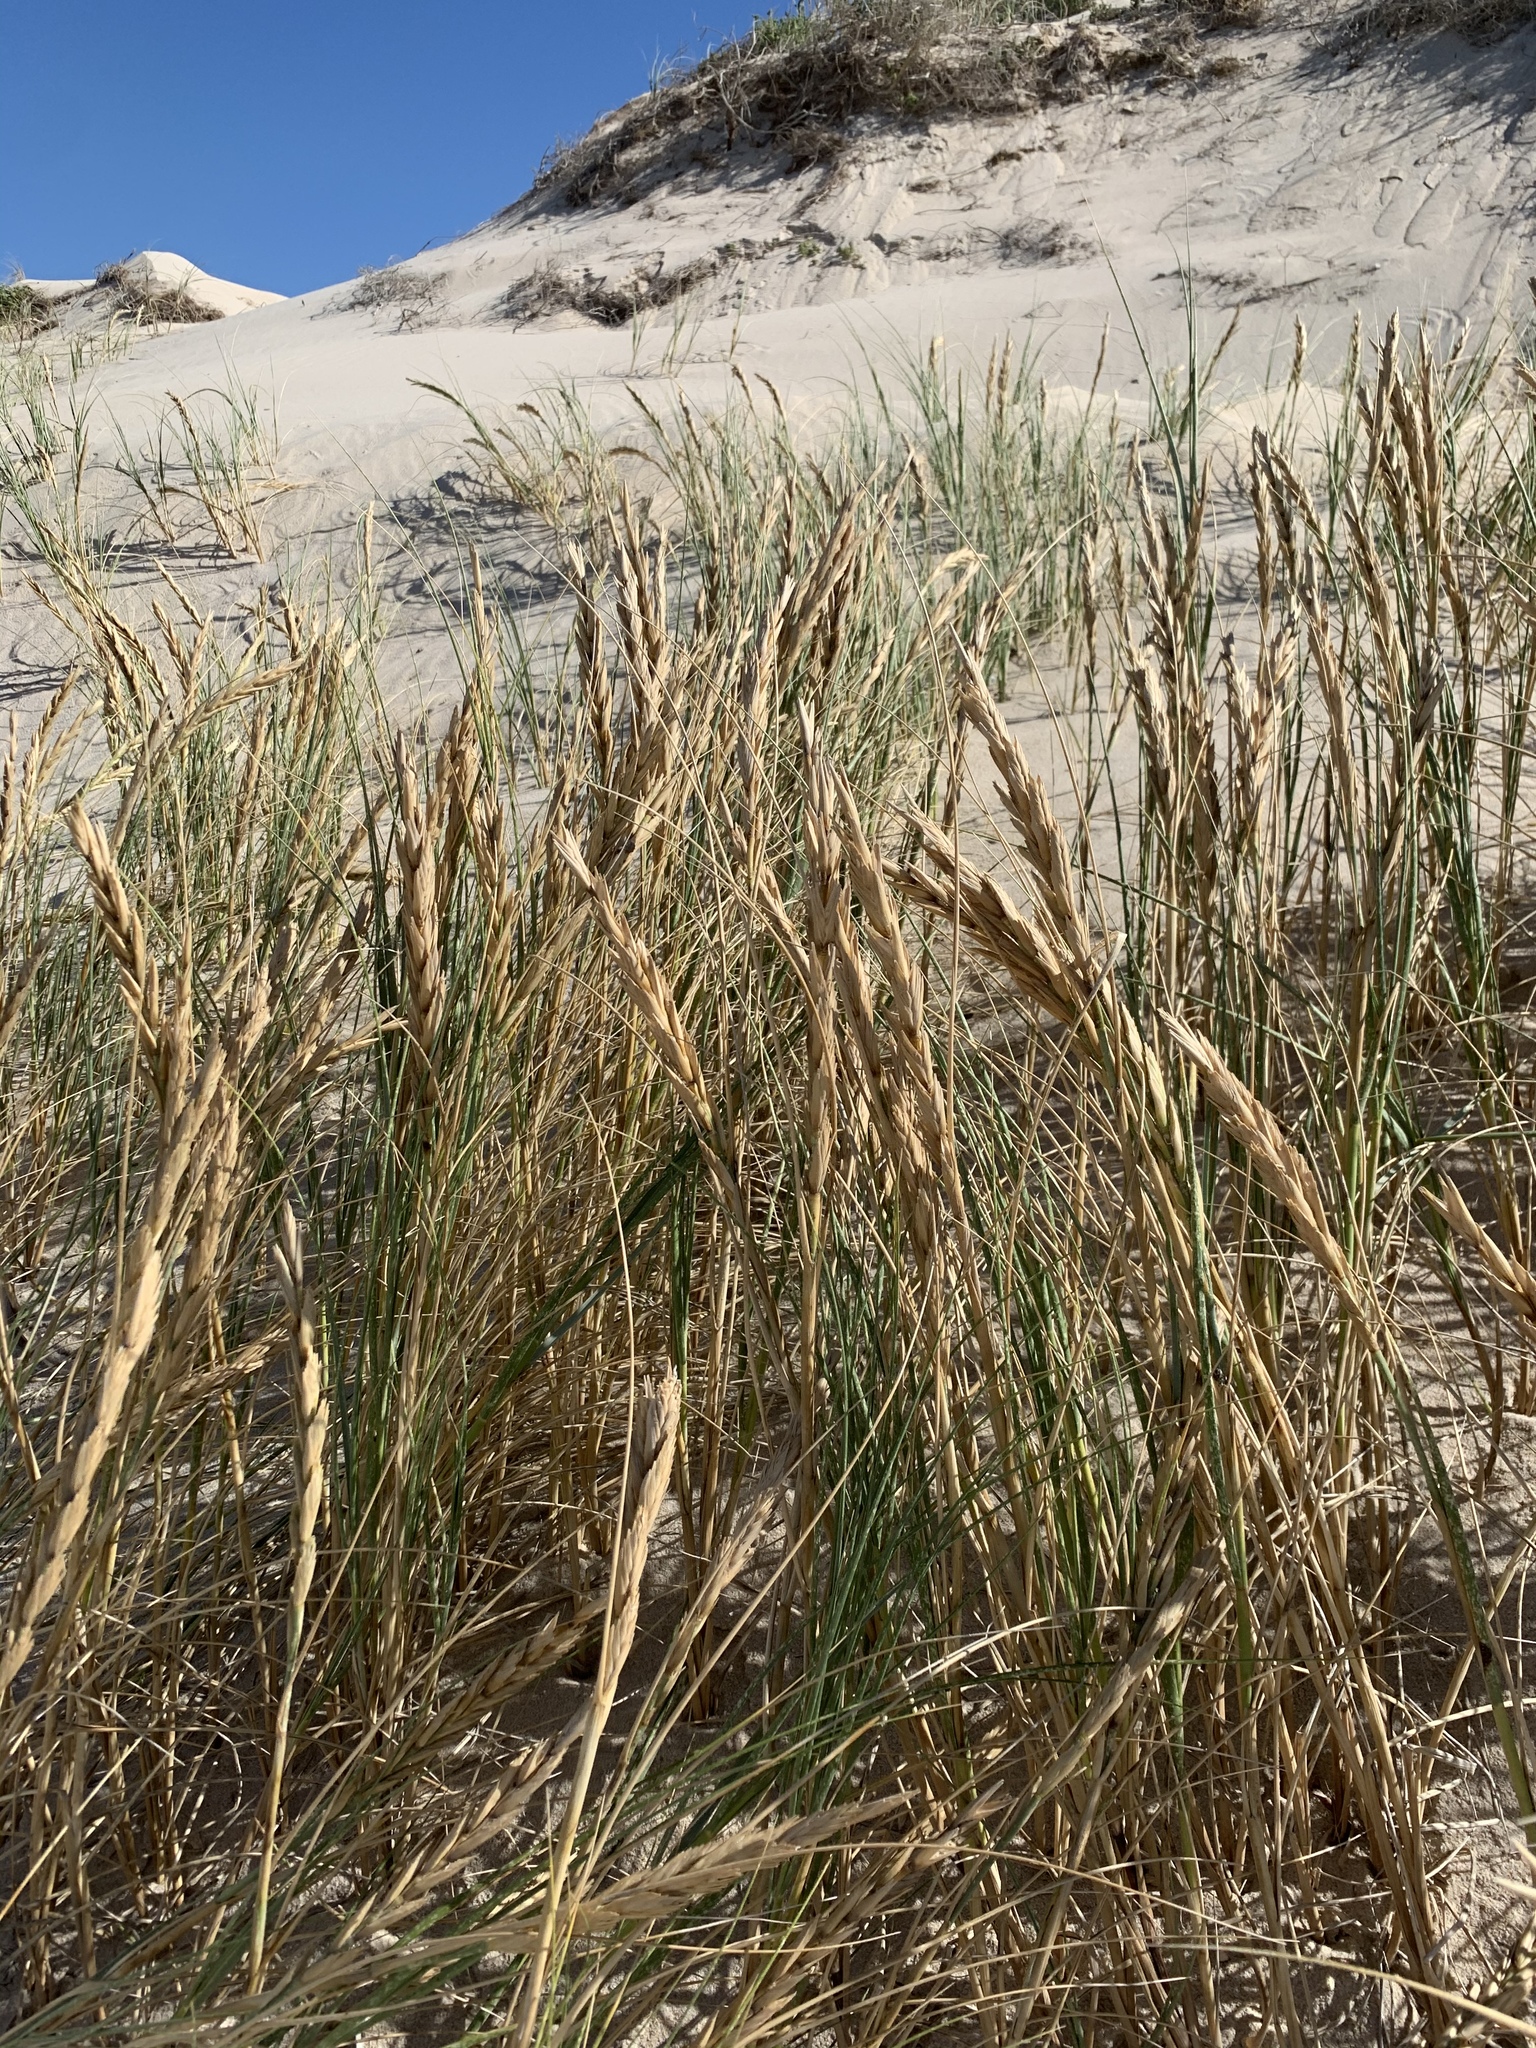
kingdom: Plantae
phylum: Tracheophyta
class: Liliopsida
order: Poales
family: Poaceae
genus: Thinopyrum
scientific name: Thinopyrum distichum
